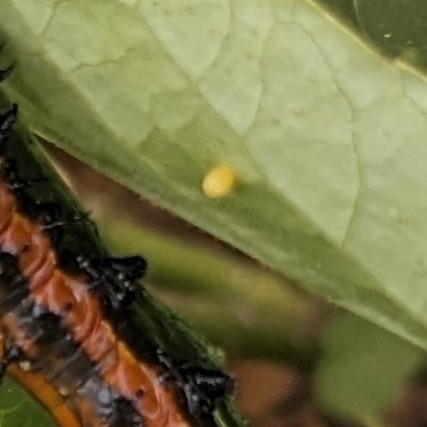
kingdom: Animalia
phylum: Arthropoda
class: Insecta
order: Lepidoptera
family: Nymphalidae
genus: Dione
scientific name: Dione vanillae
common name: Gulf fritillary
